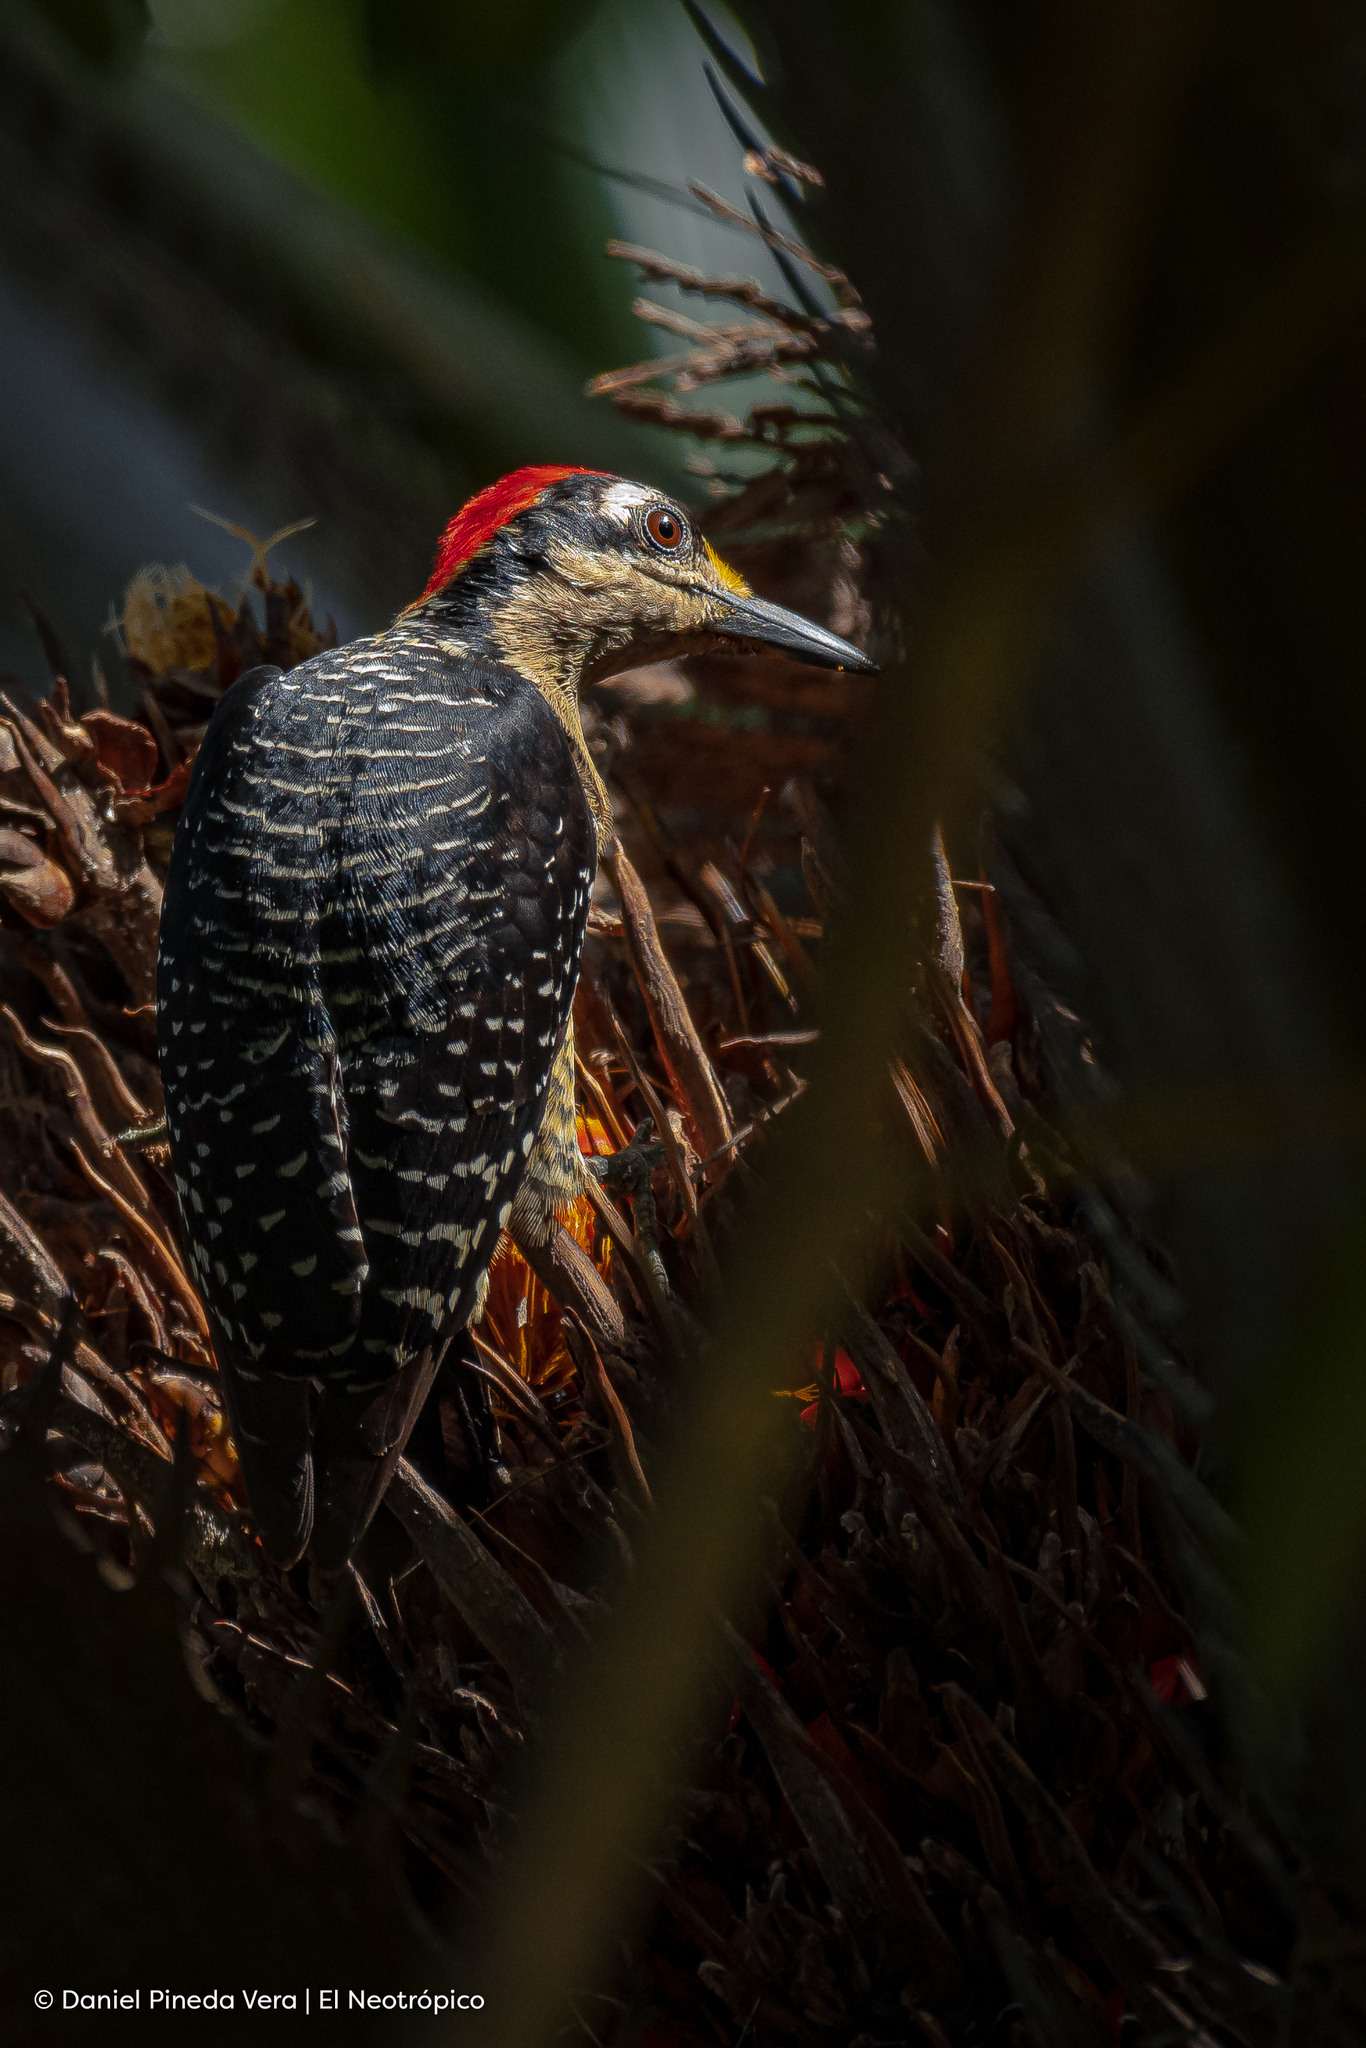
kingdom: Animalia
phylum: Chordata
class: Aves
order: Piciformes
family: Picidae
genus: Melanerpes
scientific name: Melanerpes pucherani
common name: Black-cheeked woodpecker
